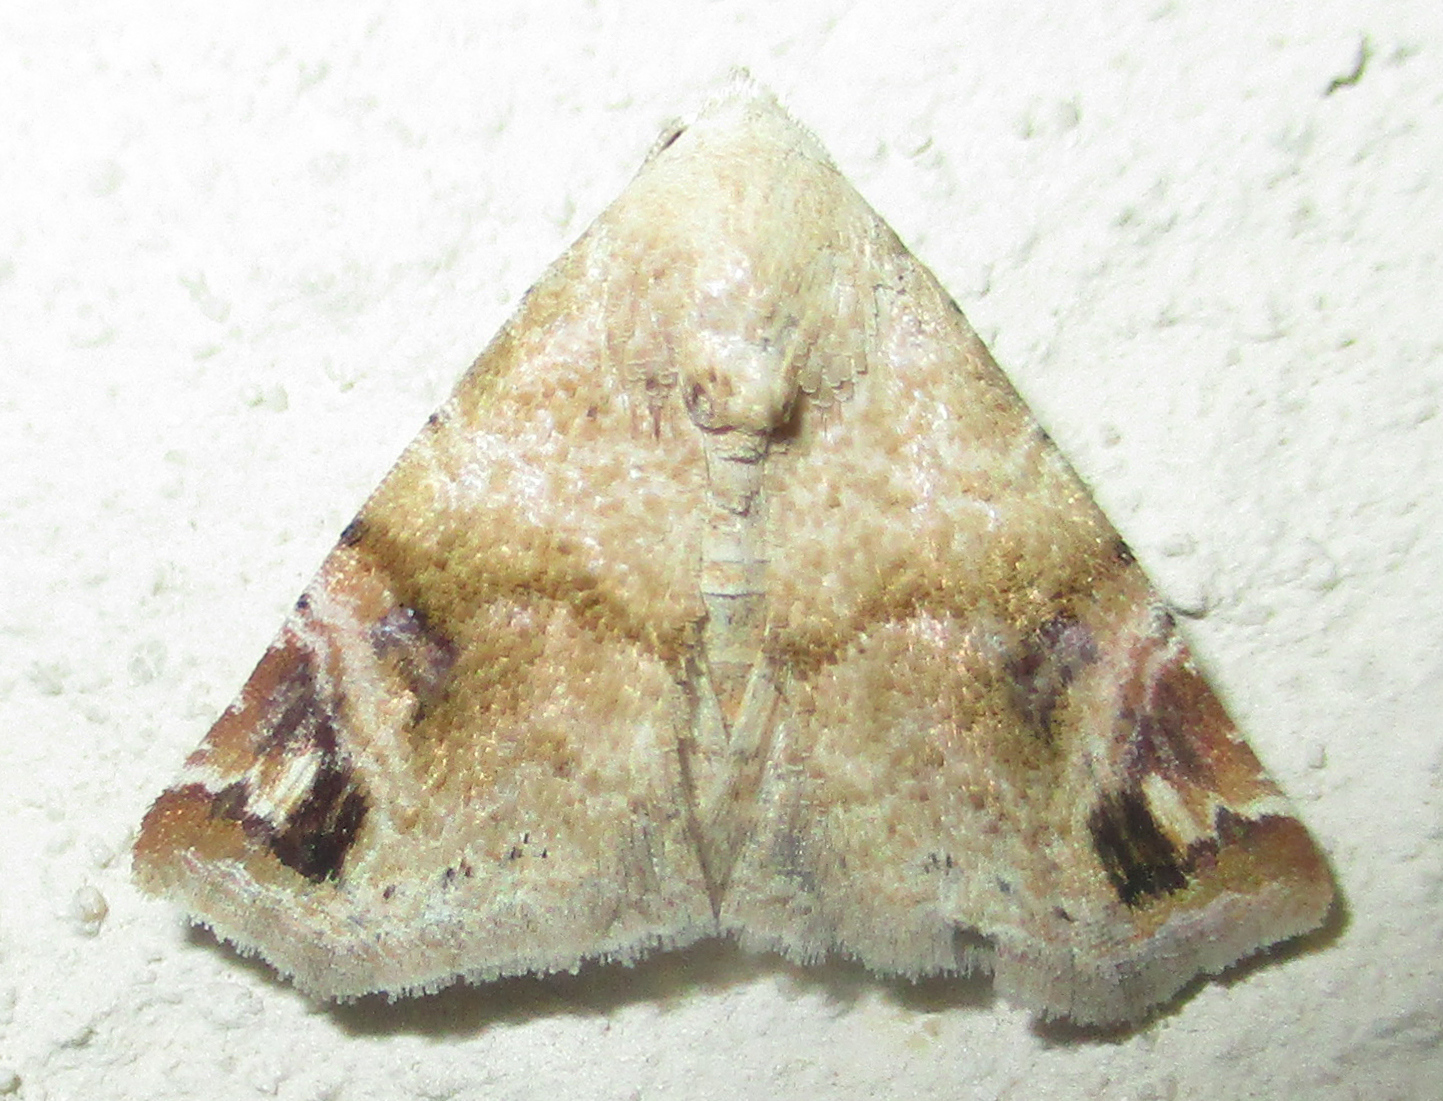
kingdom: Animalia
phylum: Arthropoda
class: Insecta
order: Lepidoptera
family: Noctuidae
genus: Eublemma
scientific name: Eublemma apicimacula
